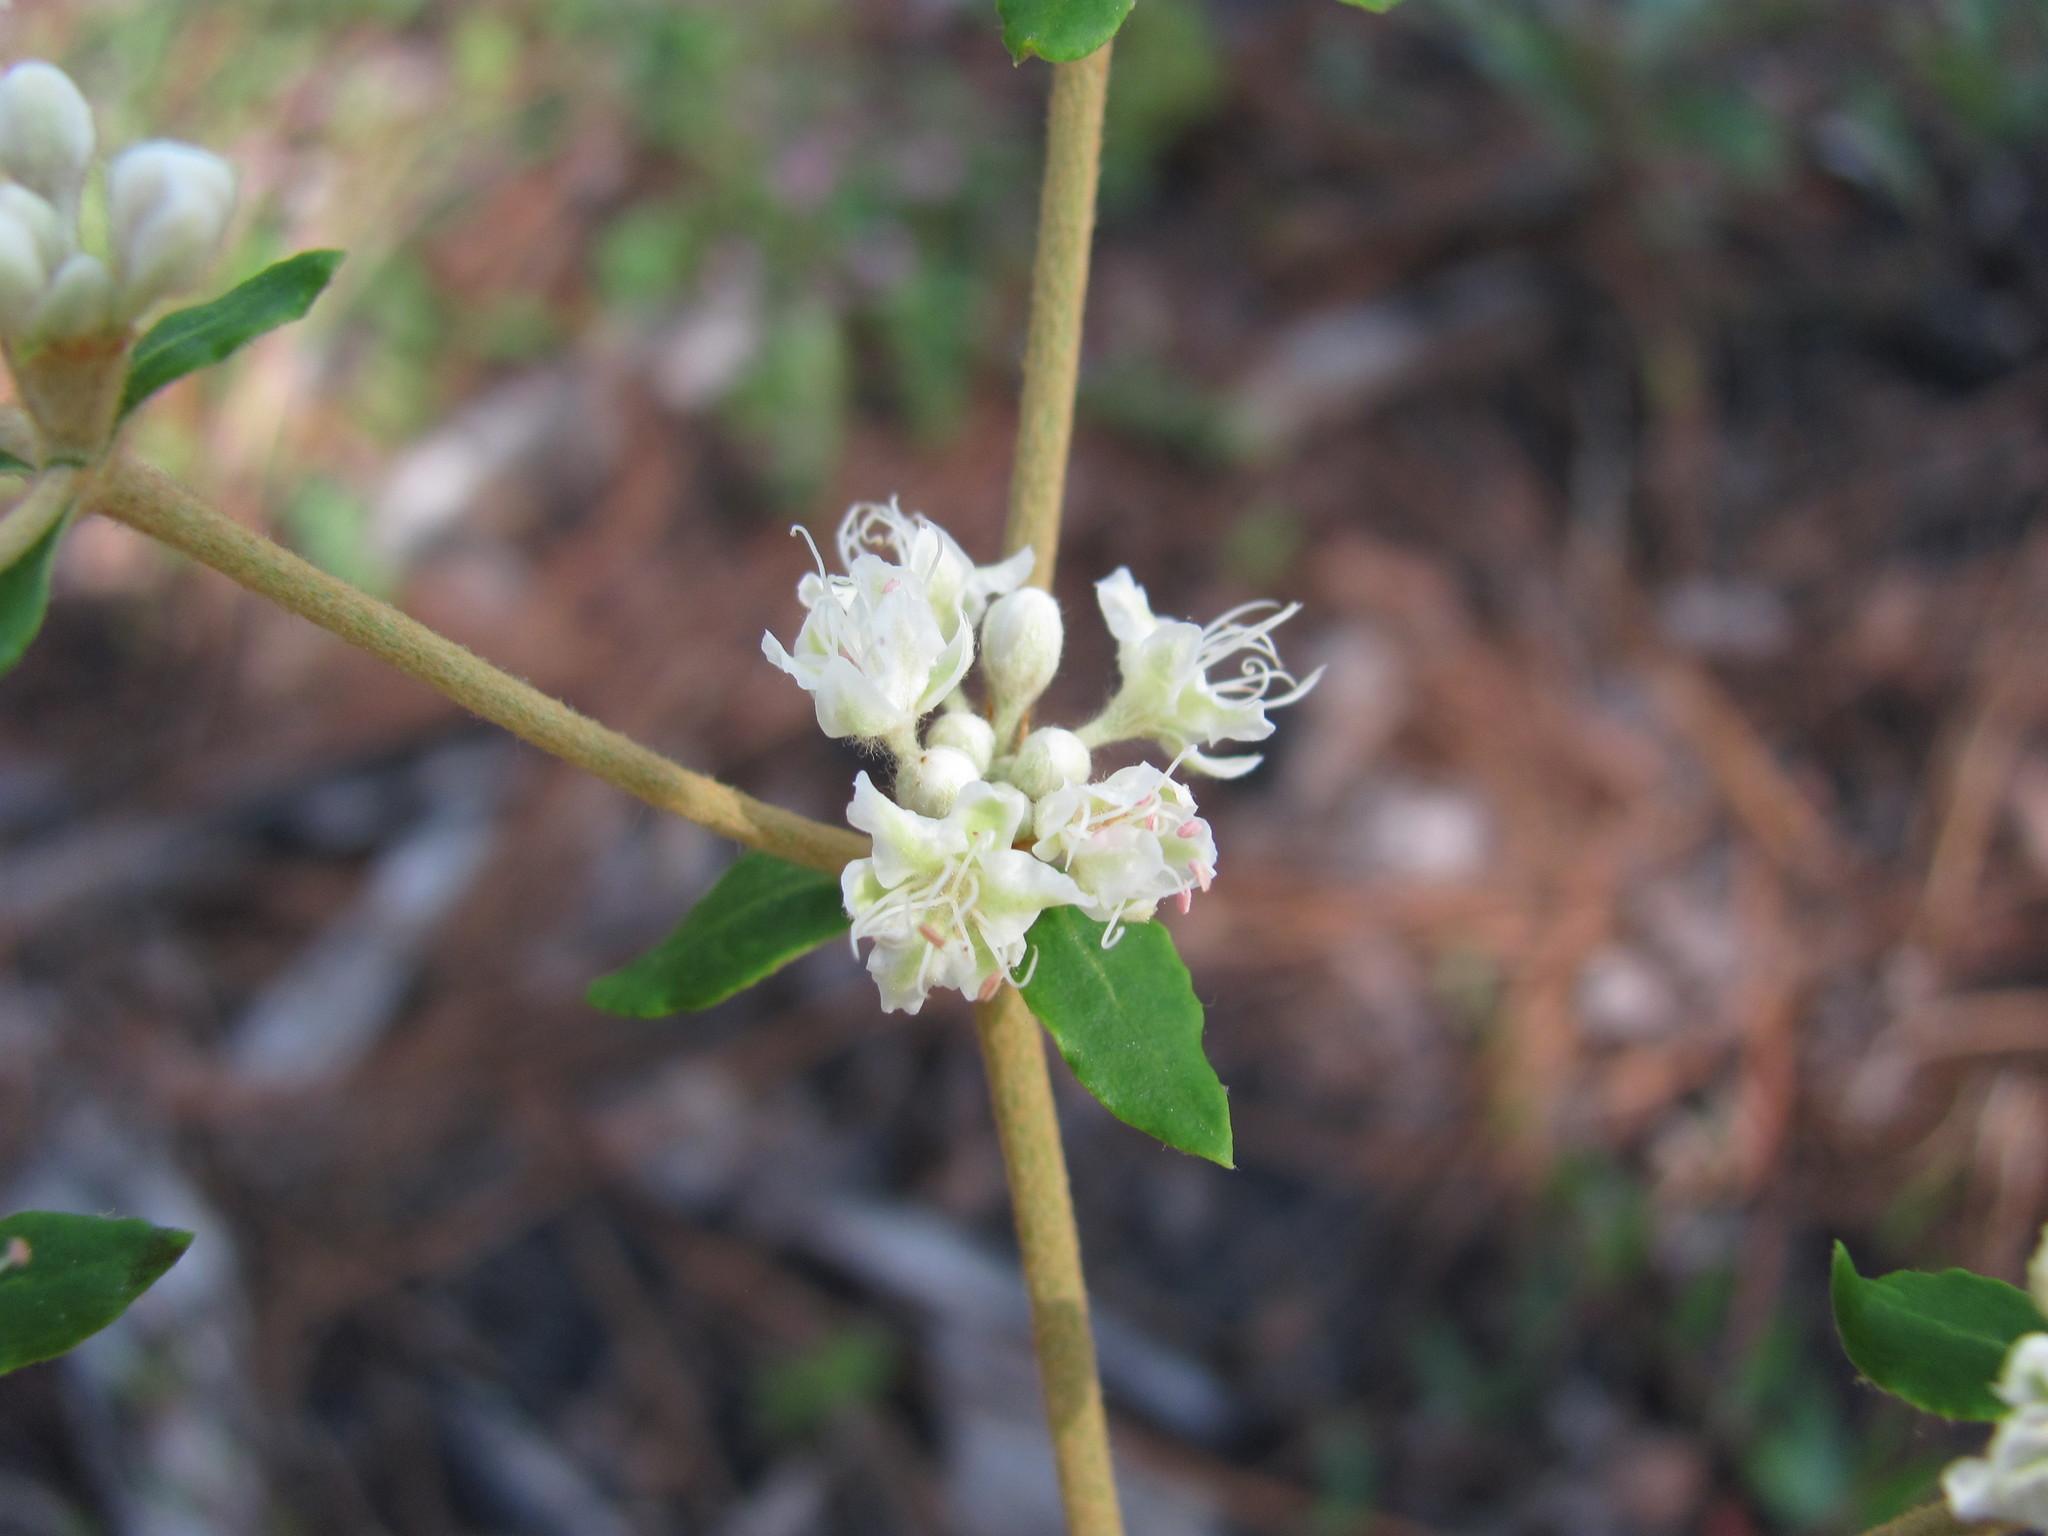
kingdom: Plantae
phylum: Tracheophyta
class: Magnoliopsida
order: Caryophyllales
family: Polygonaceae
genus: Eriogonum
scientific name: Eriogonum tomentosum
